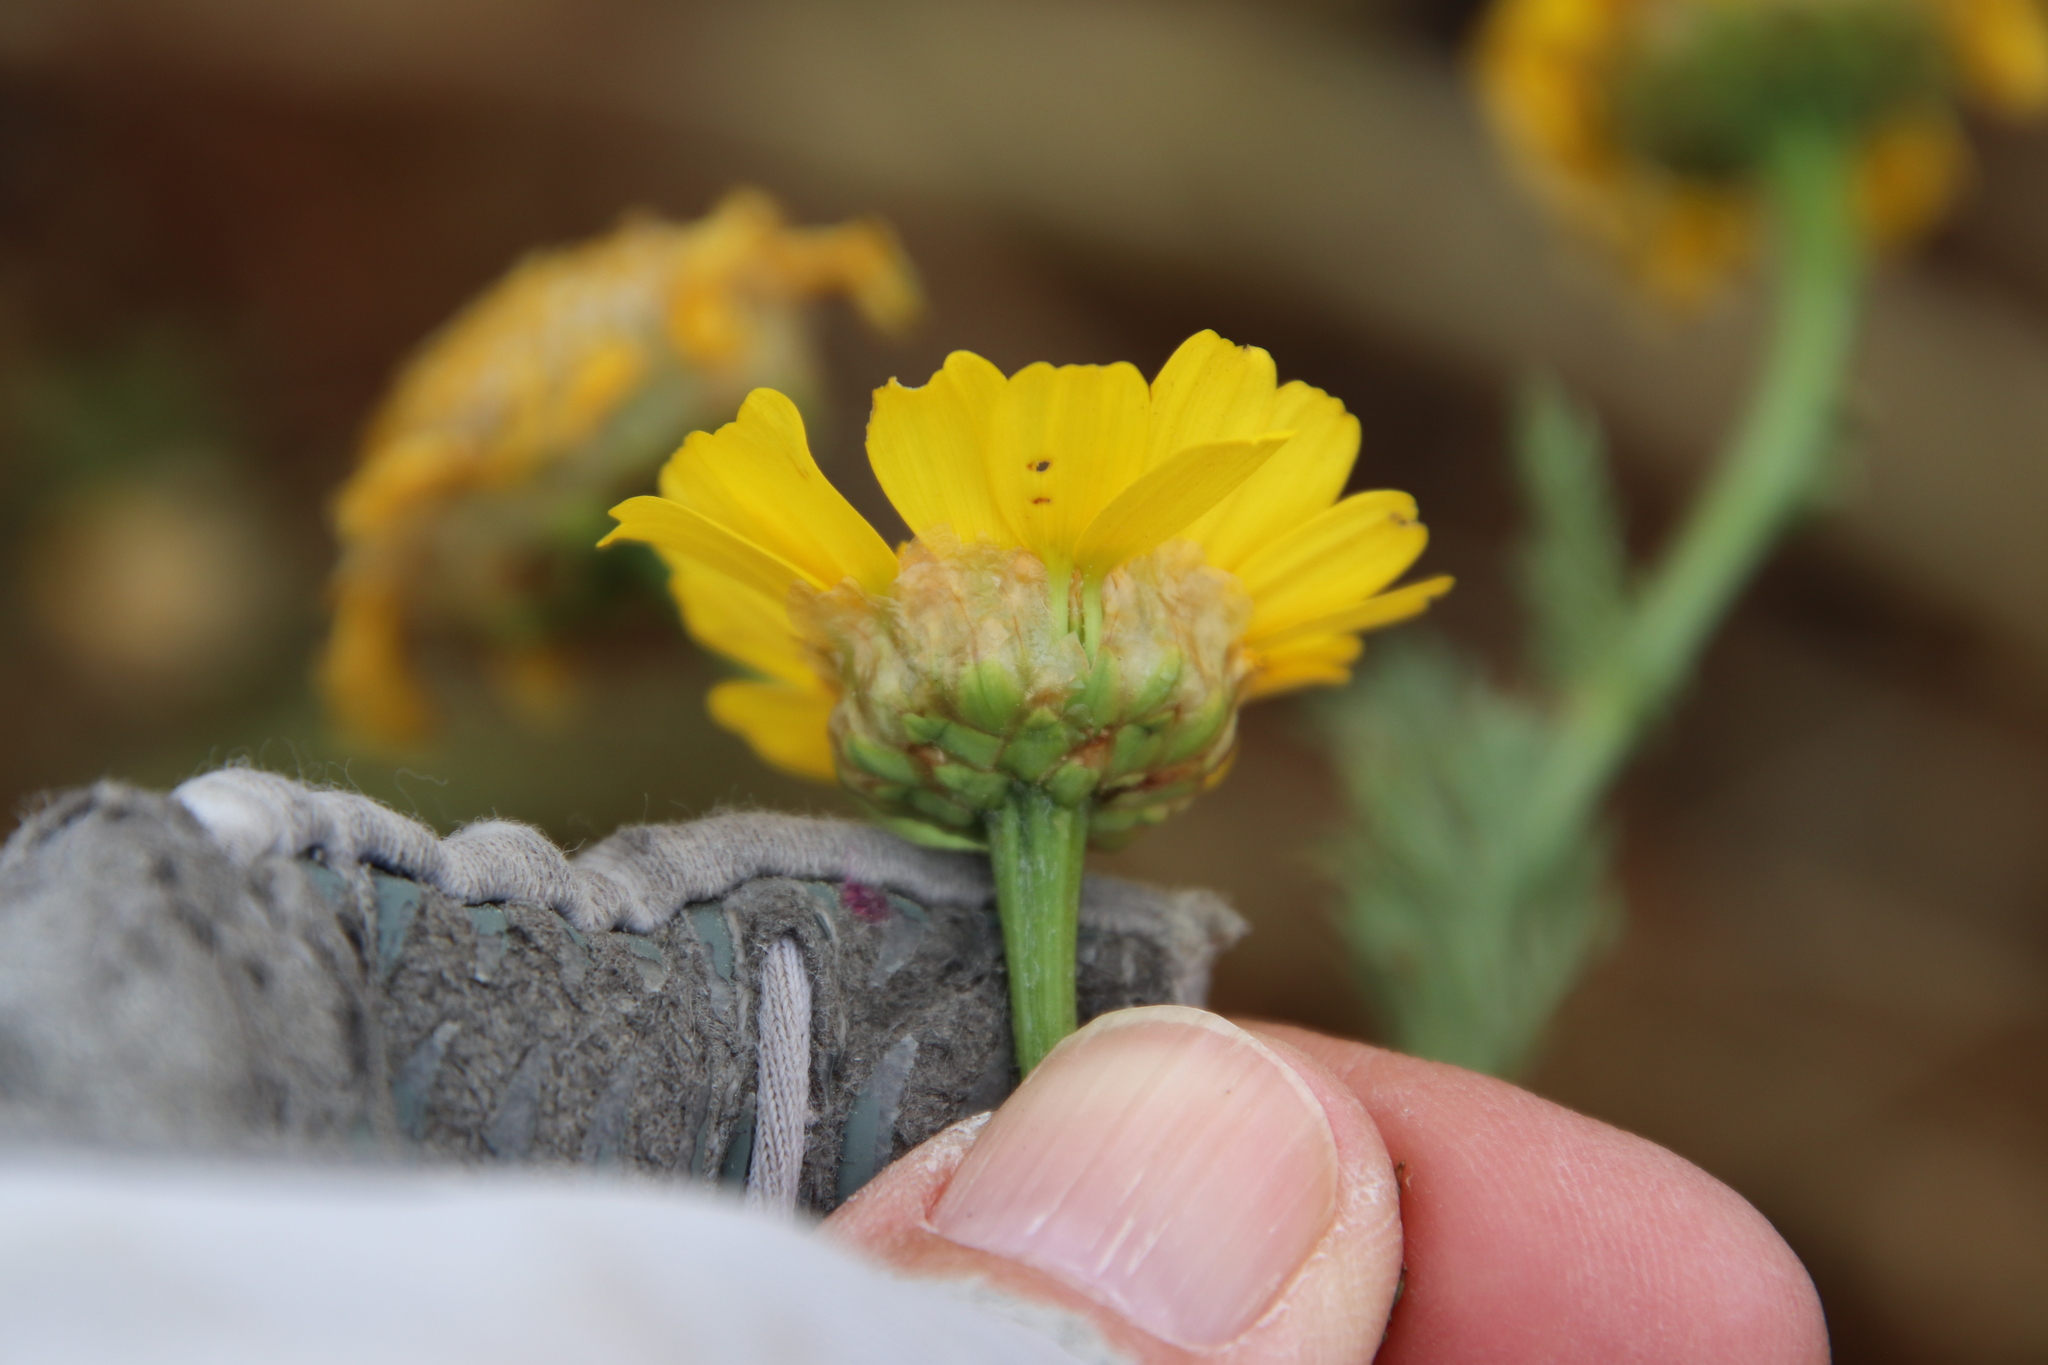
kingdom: Plantae
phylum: Tracheophyta
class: Magnoliopsida
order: Asterales
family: Asteraceae
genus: Glebionis
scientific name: Glebionis coronaria
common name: Crowndaisy
